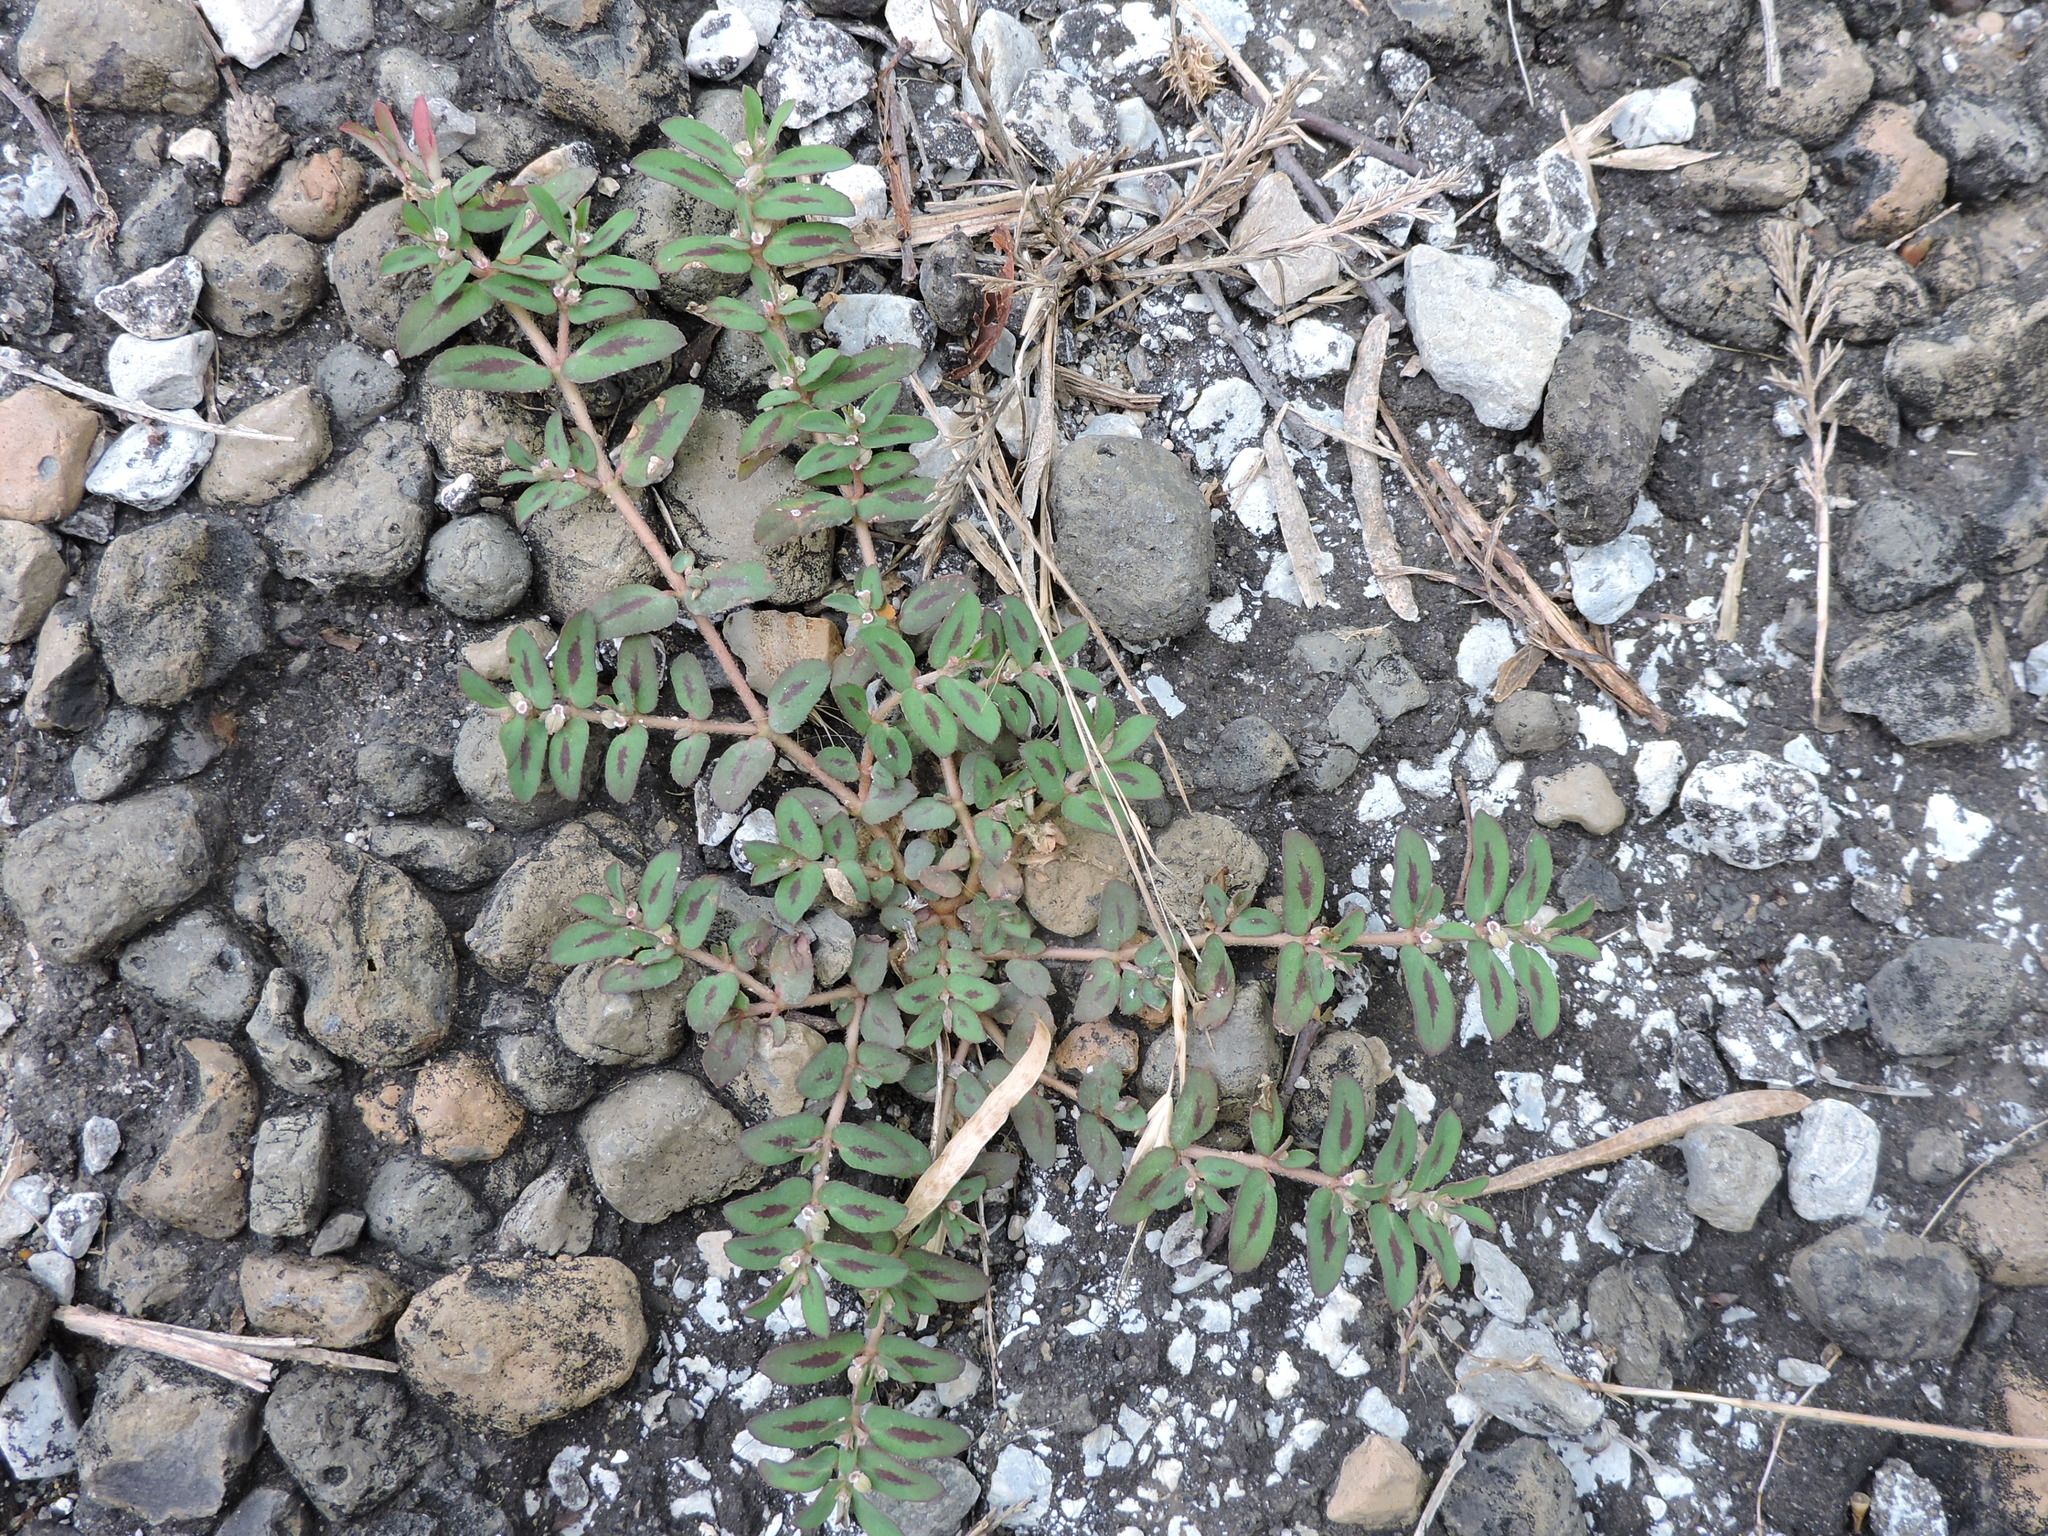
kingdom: Plantae
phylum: Tracheophyta
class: Magnoliopsida
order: Malpighiales
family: Euphorbiaceae
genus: Euphorbia
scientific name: Euphorbia maculata
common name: Spotted spurge
